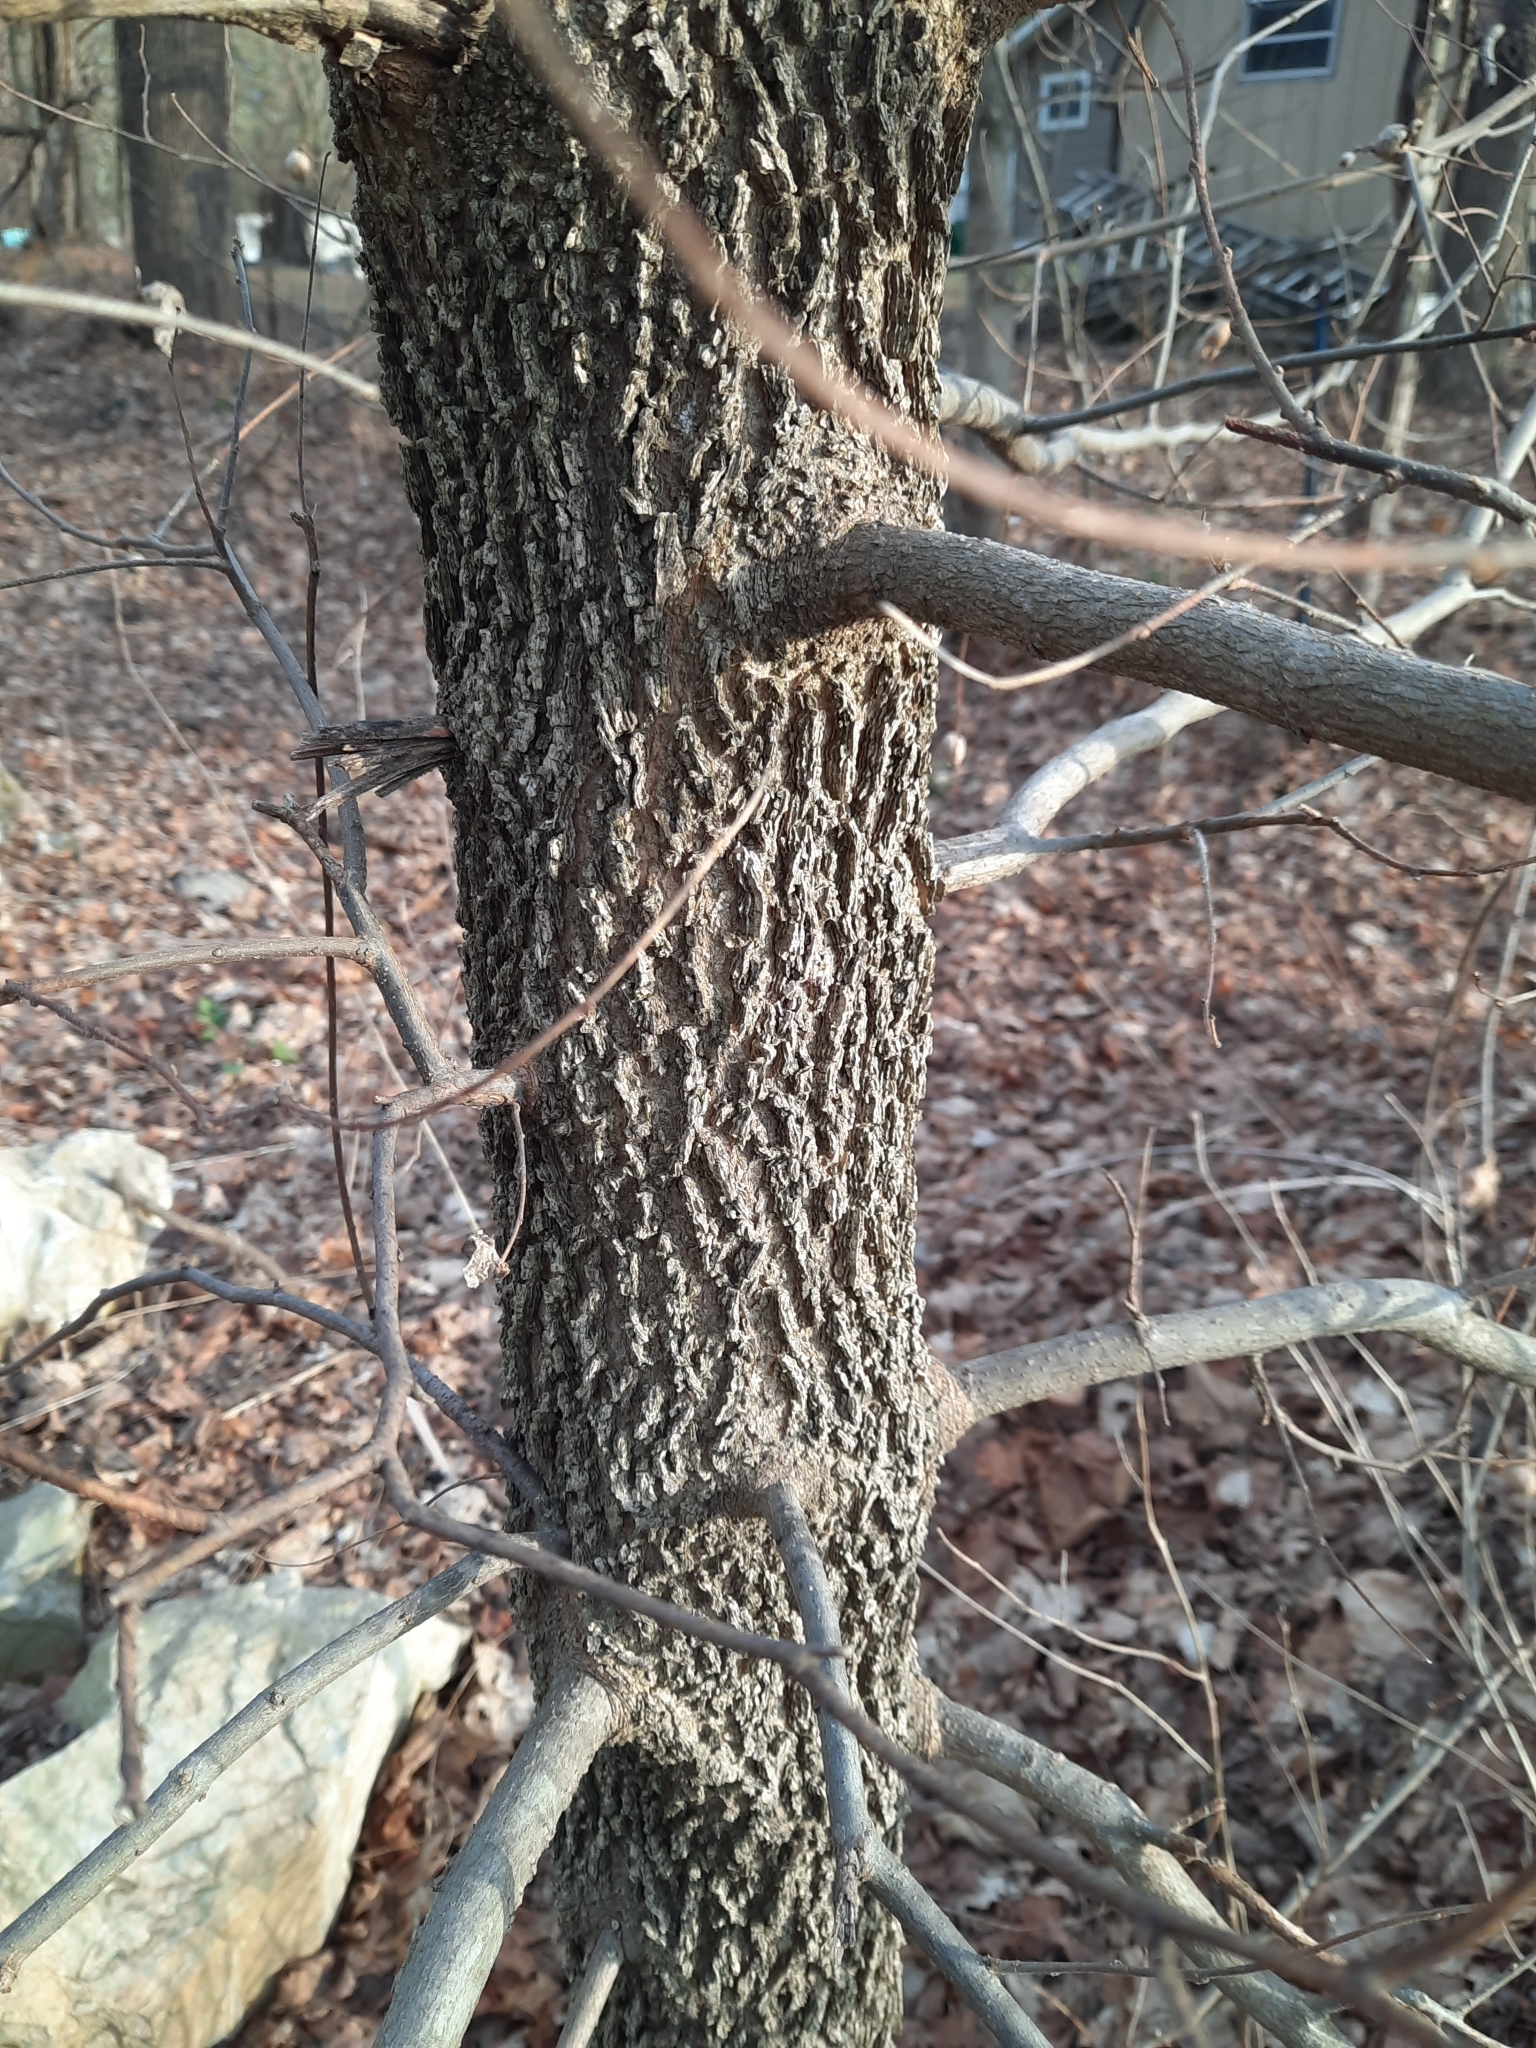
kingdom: Plantae
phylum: Tracheophyta
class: Magnoliopsida
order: Rosales
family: Cannabaceae
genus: Celtis
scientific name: Celtis occidentalis
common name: Common hackberry
